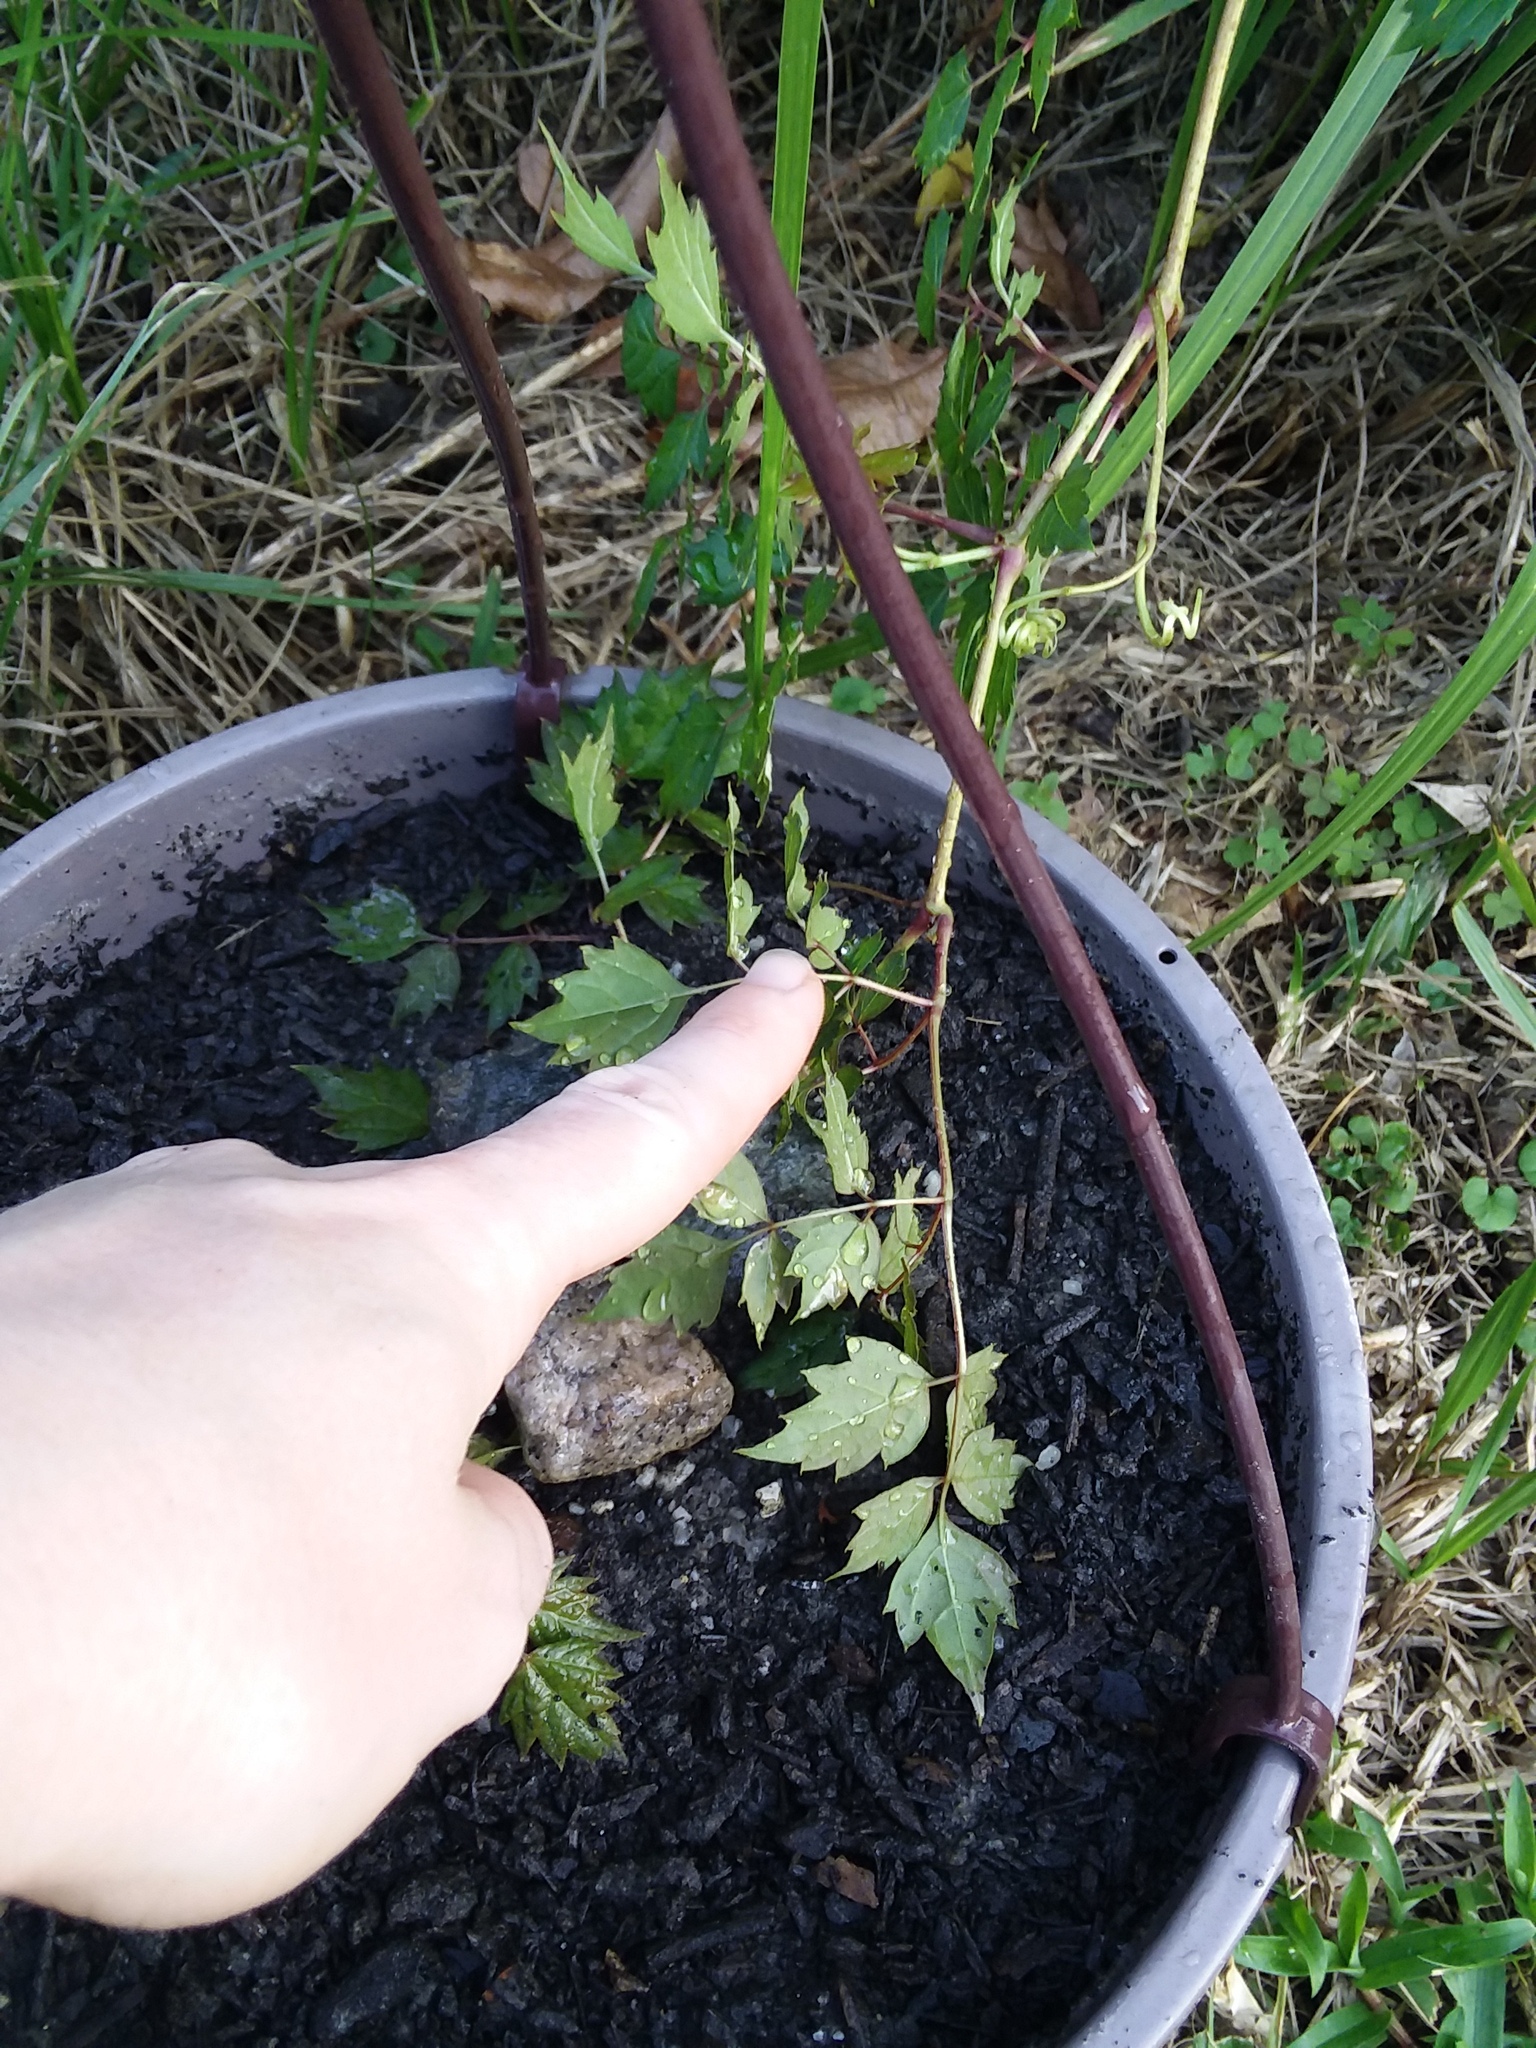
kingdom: Plantae
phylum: Tracheophyta
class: Magnoliopsida
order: Vitales
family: Vitaceae
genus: Nekemias
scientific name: Nekemias arborea
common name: Peppervine
